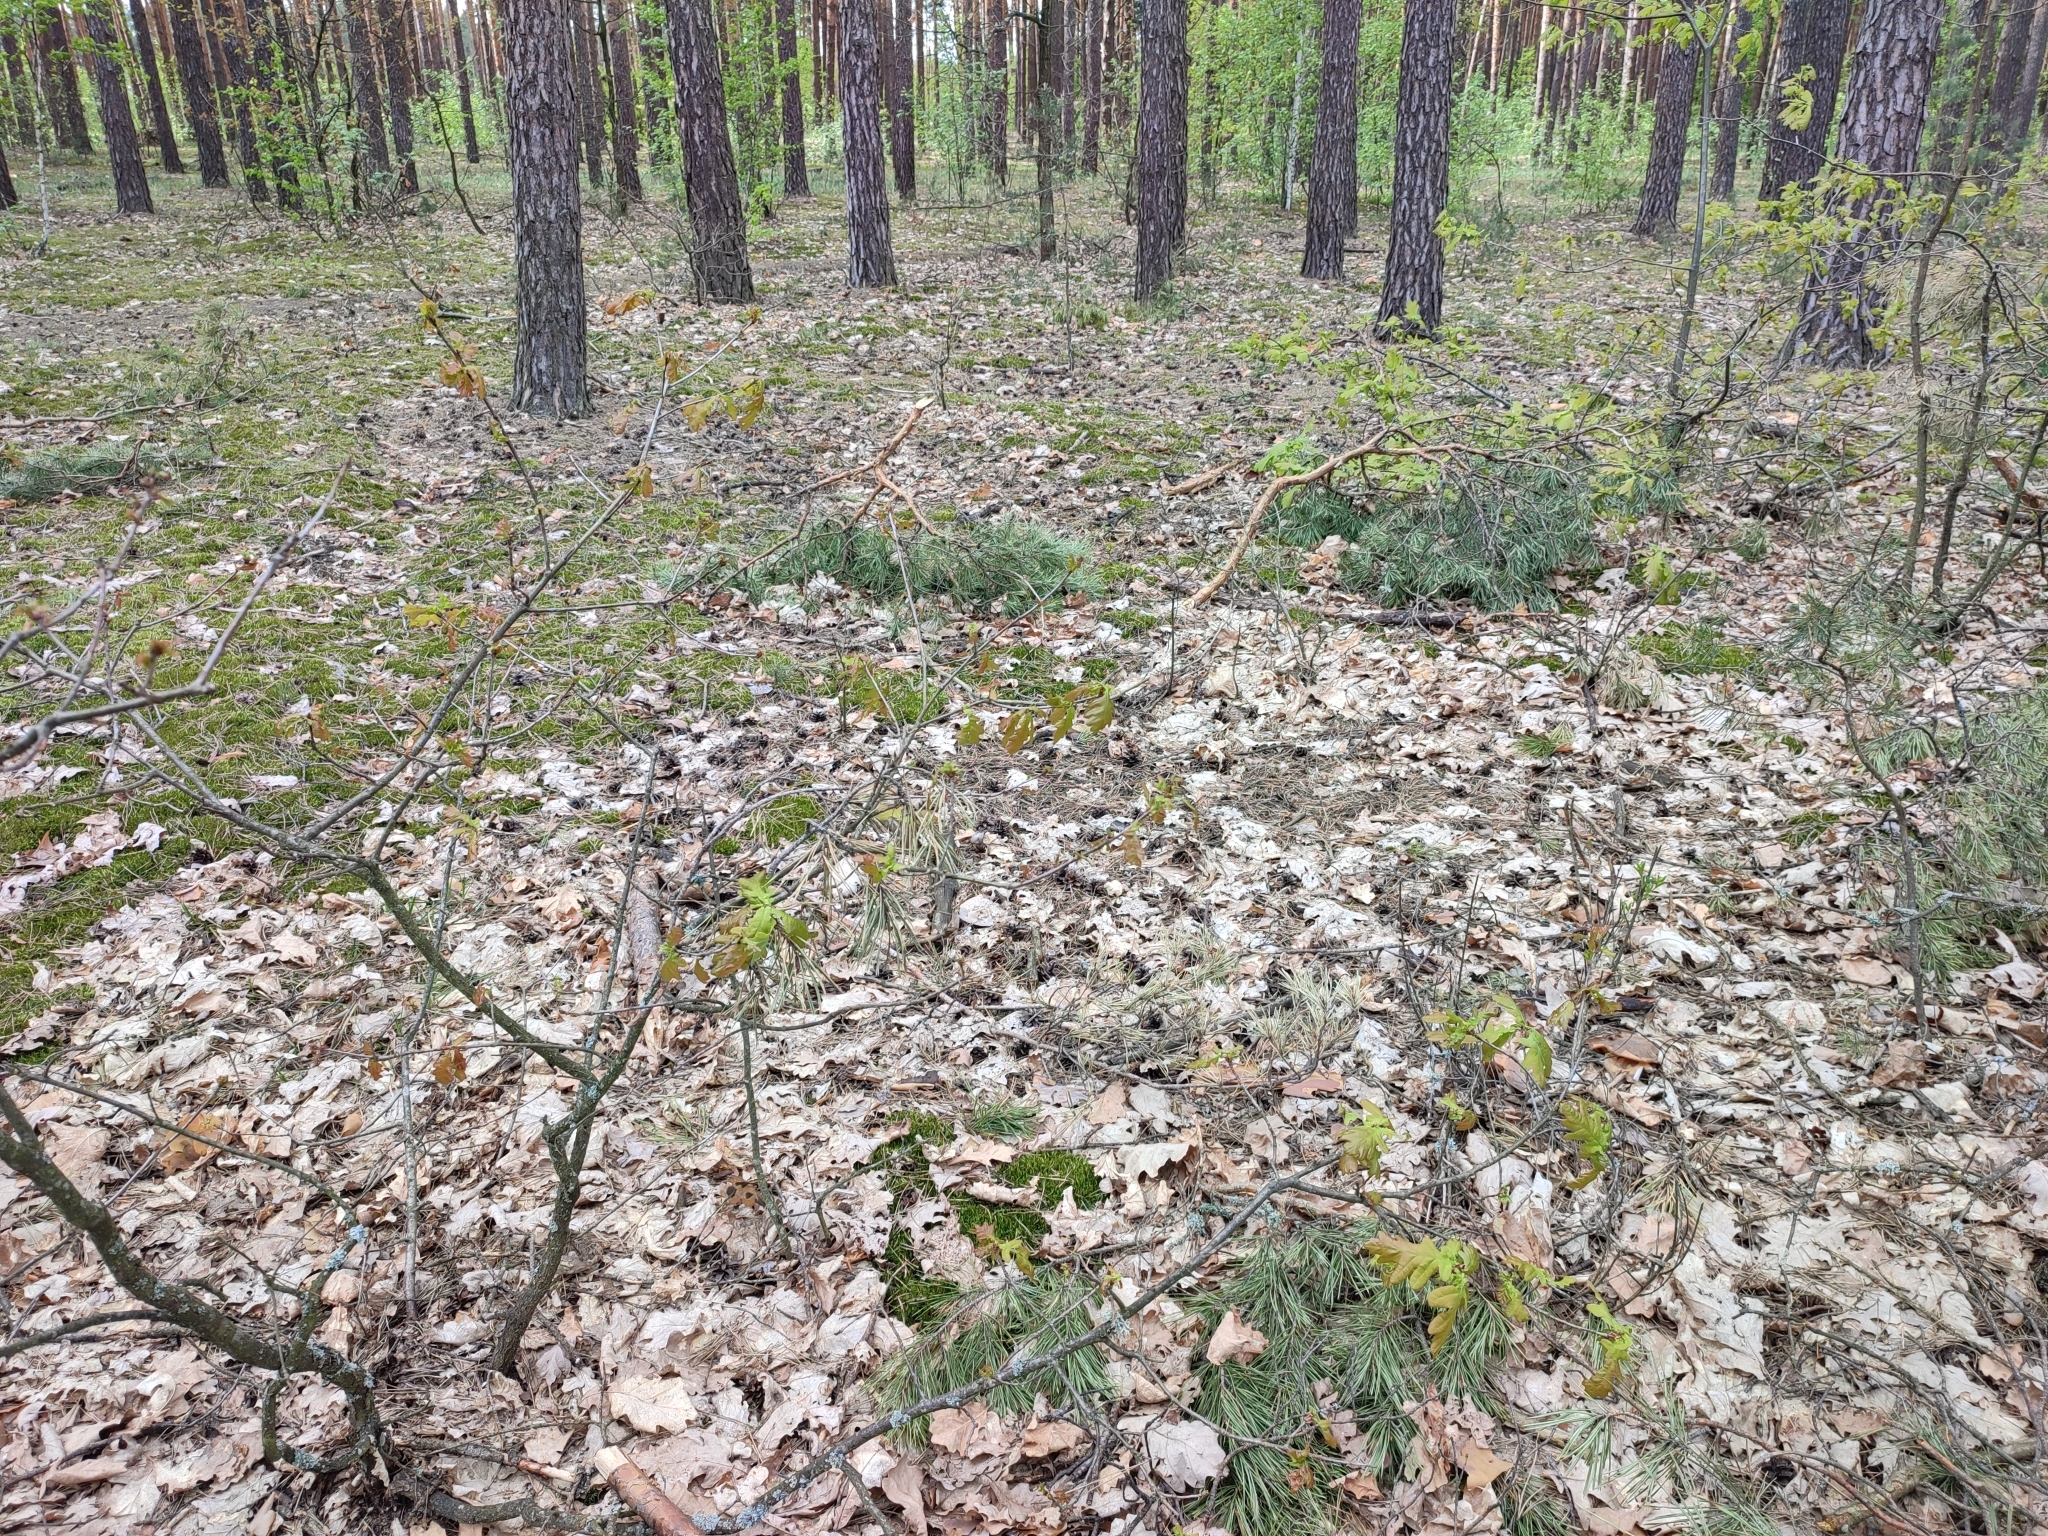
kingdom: Plantae
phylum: Tracheophyta
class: Magnoliopsida
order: Fagales
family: Fagaceae
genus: Quercus
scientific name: Quercus robur
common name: Pedunculate oak
